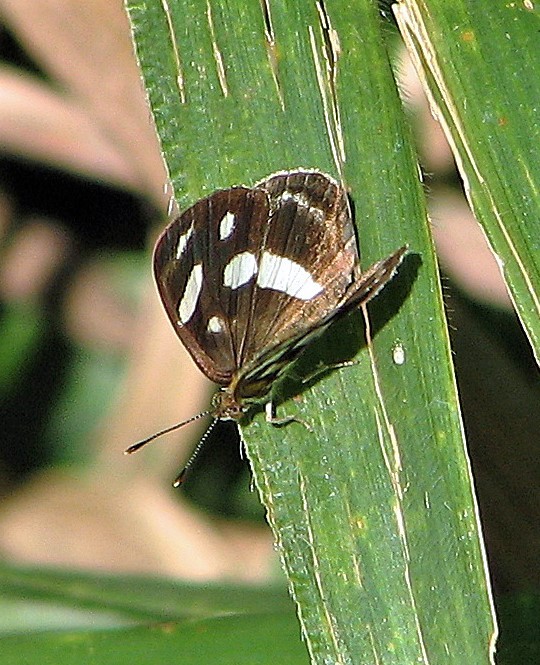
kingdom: Animalia
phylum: Arthropoda
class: Insecta
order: Lepidoptera
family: Nymphalidae
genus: Dynamine
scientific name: Dynamine artemisia
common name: Small-eyed sailor
